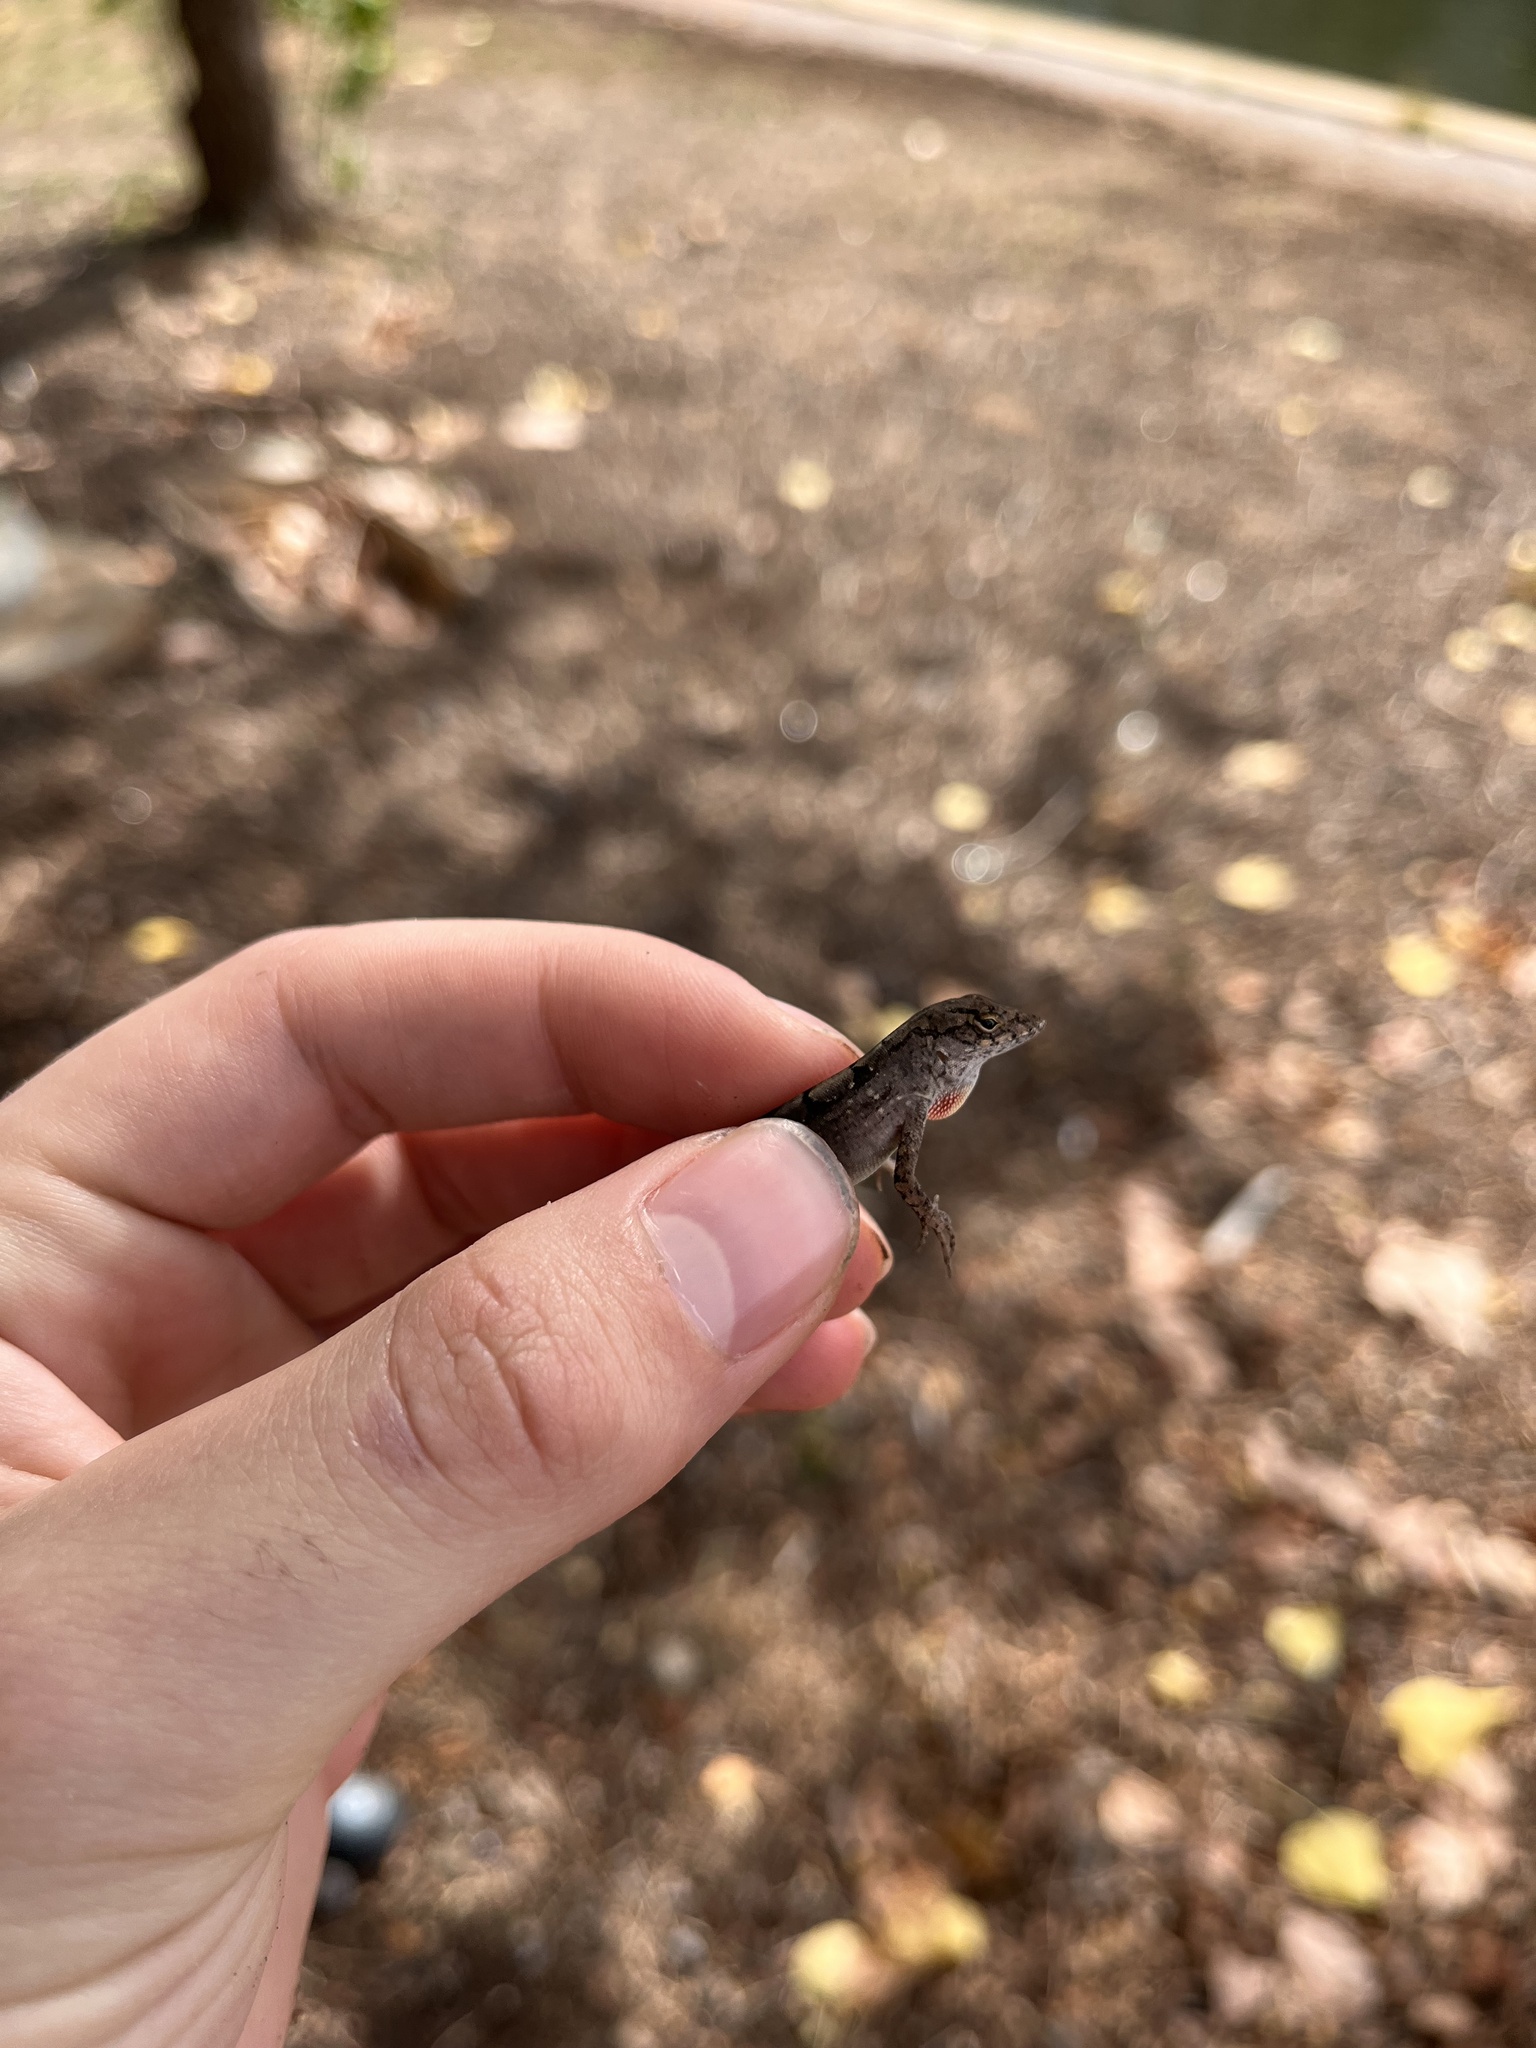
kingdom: Animalia
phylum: Chordata
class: Squamata
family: Dactyloidae
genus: Anolis
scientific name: Anolis sagrei
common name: Brown anole
